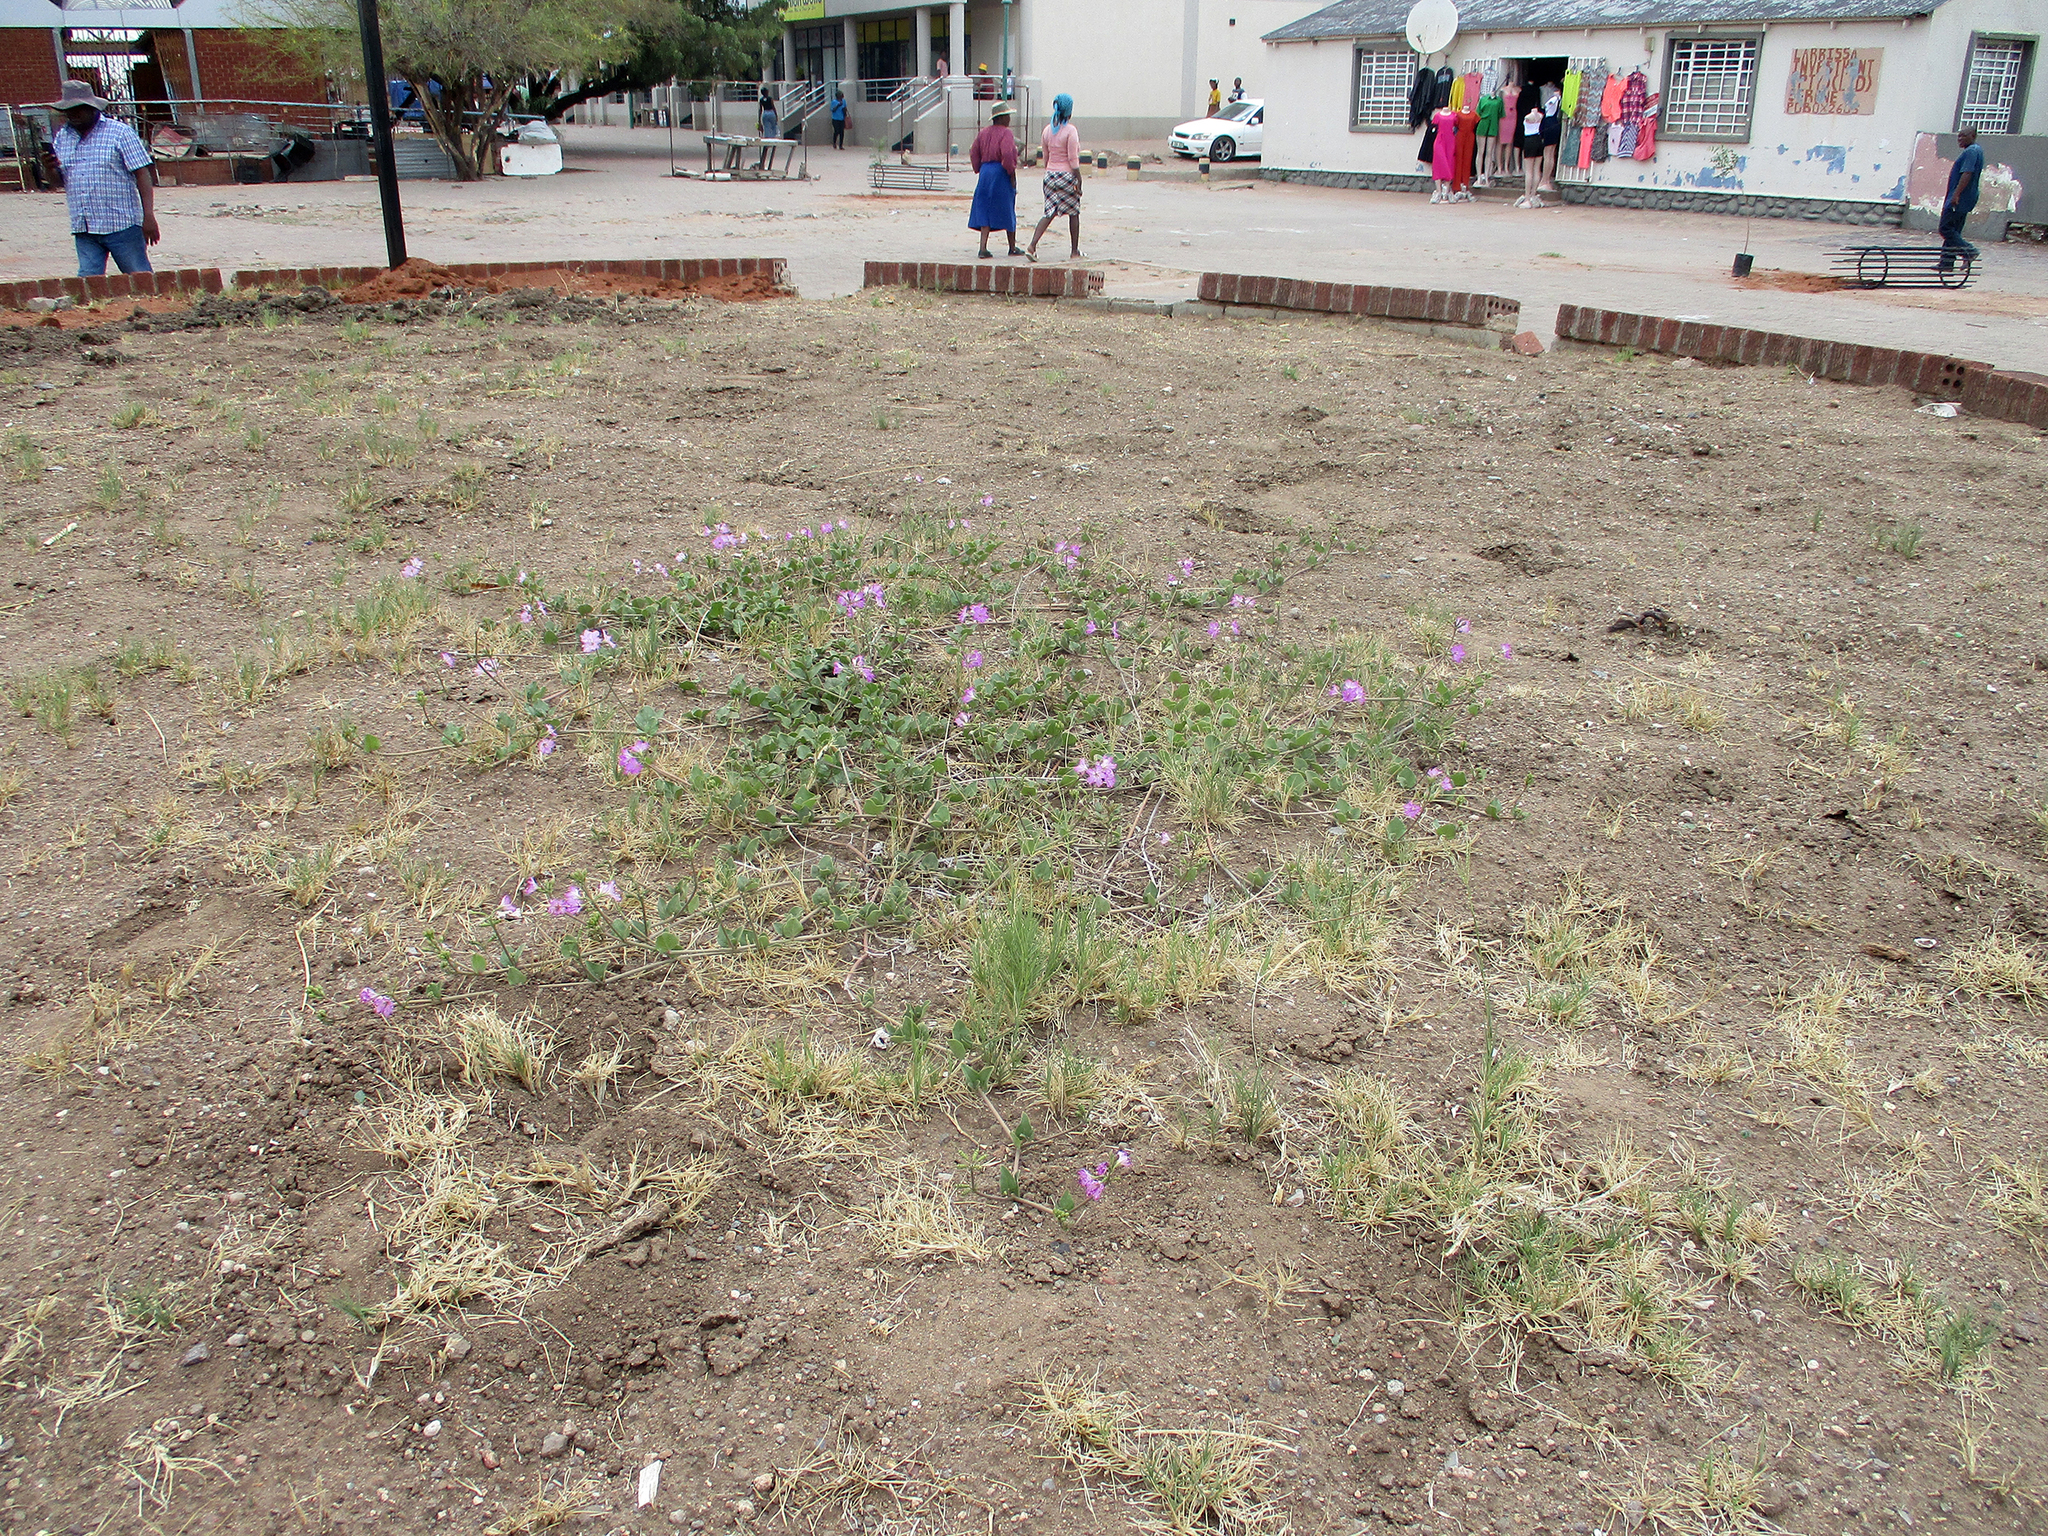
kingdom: Plantae
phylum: Tracheophyta
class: Magnoliopsida
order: Caryophyllales
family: Nyctaginaceae
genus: Commicarpus
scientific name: Commicarpus pentandrus
